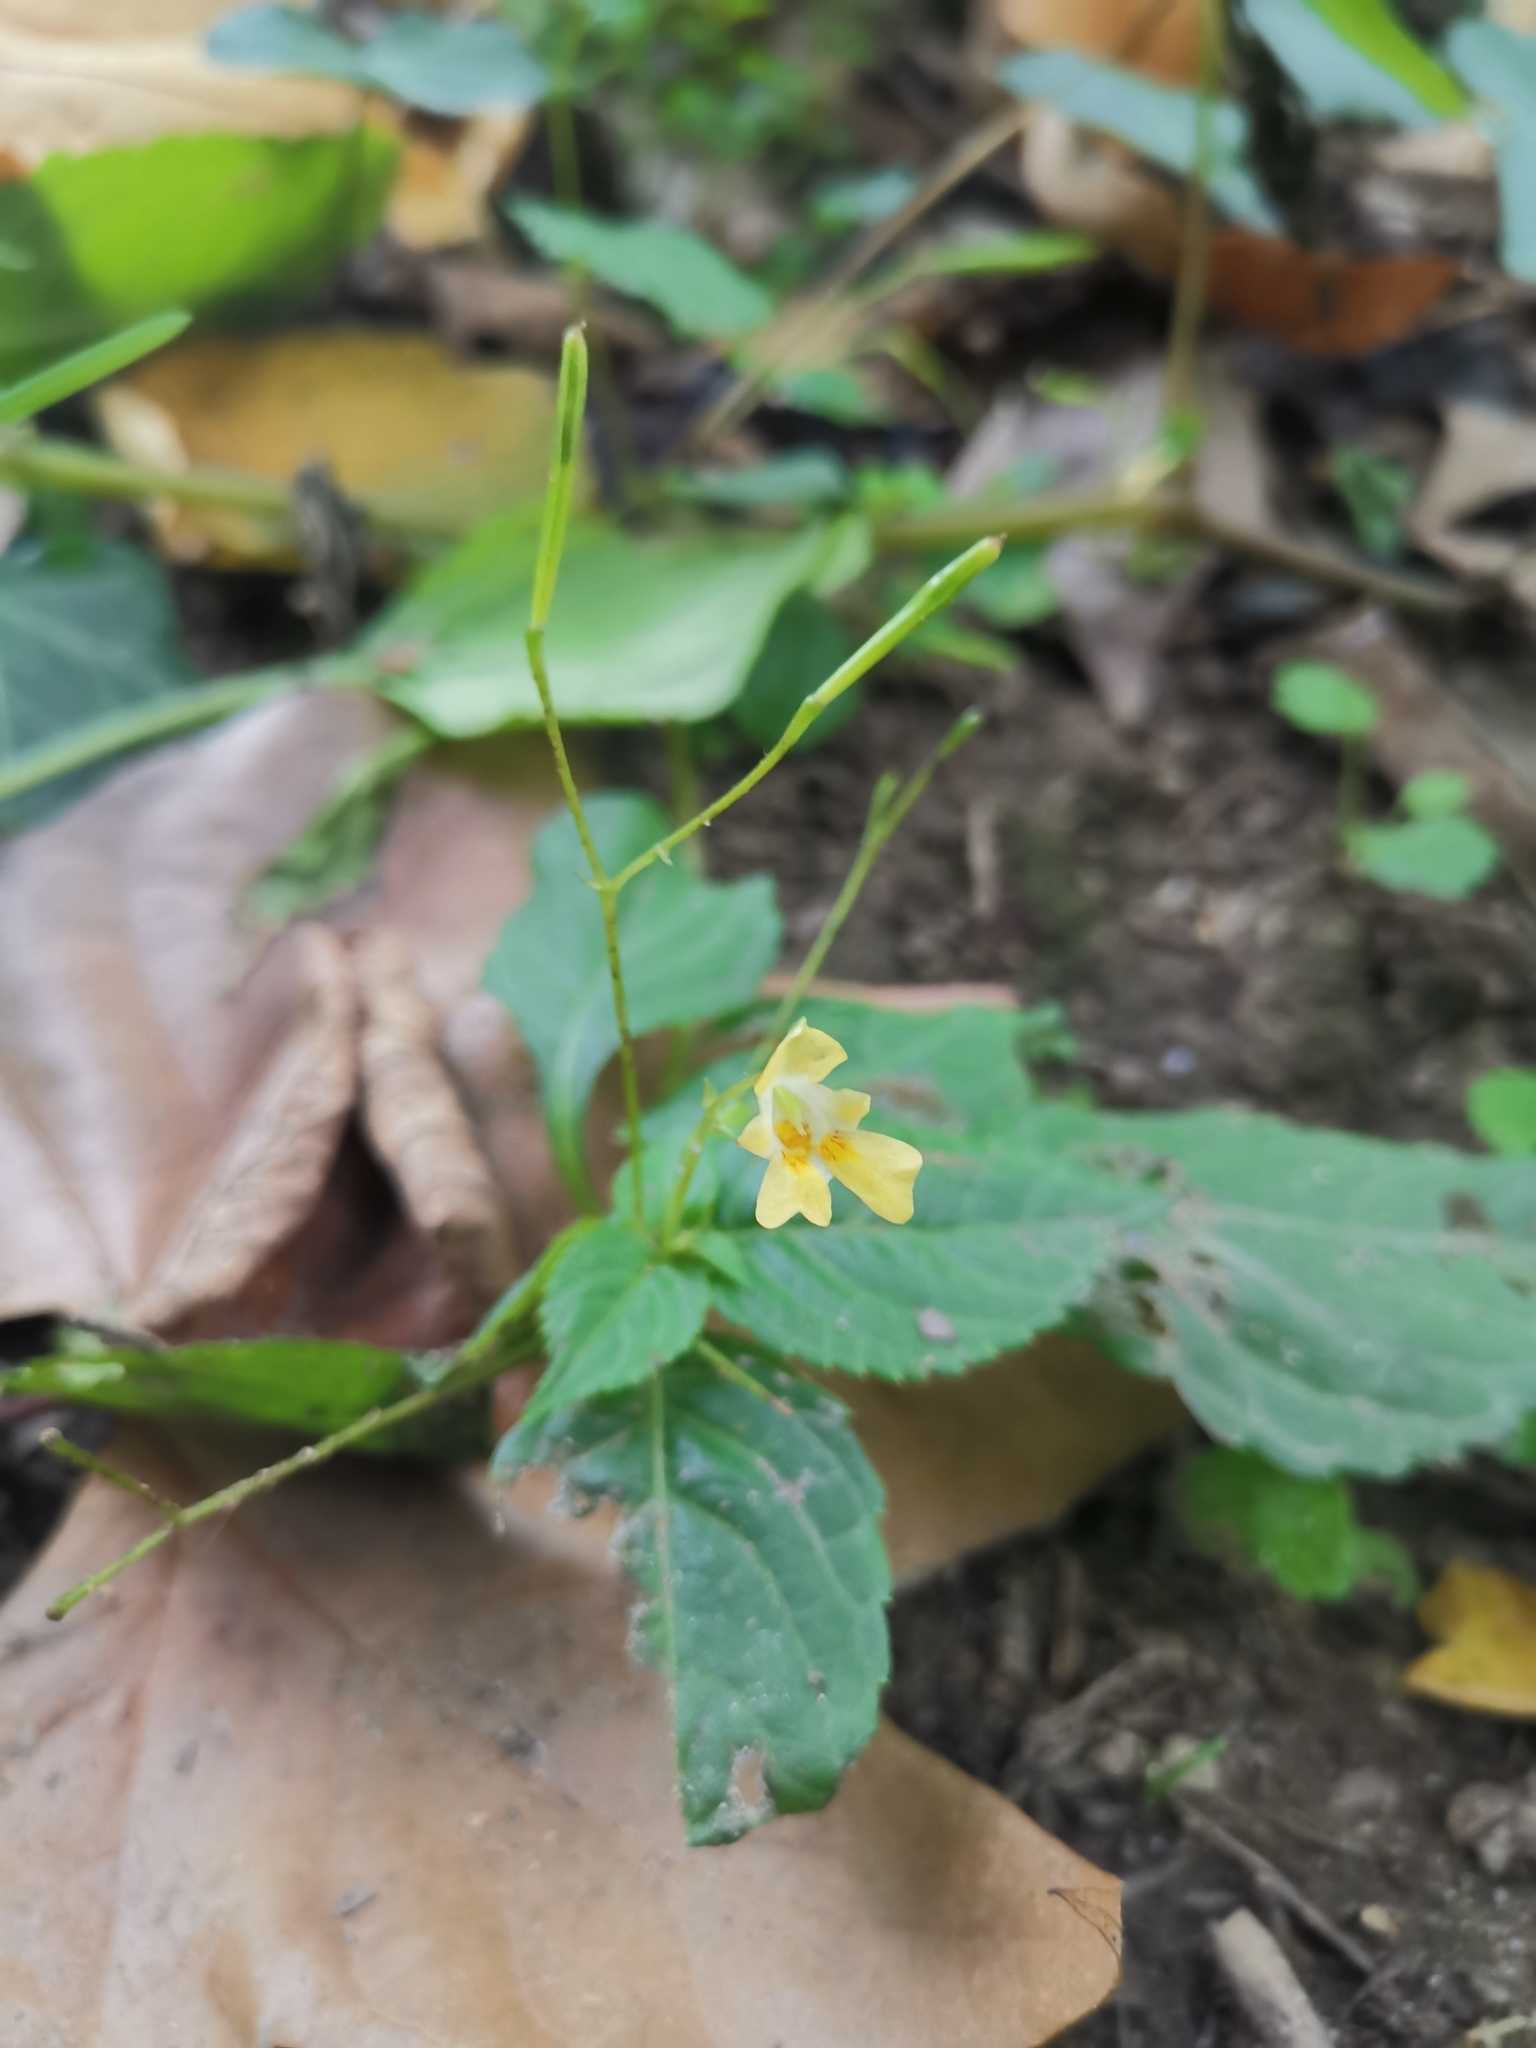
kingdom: Plantae
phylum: Tracheophyta
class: Magnoliopsida
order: Ericales
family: Balsaminaceae
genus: Impatiens
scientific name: Impatiens parviflora
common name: Small balsam
